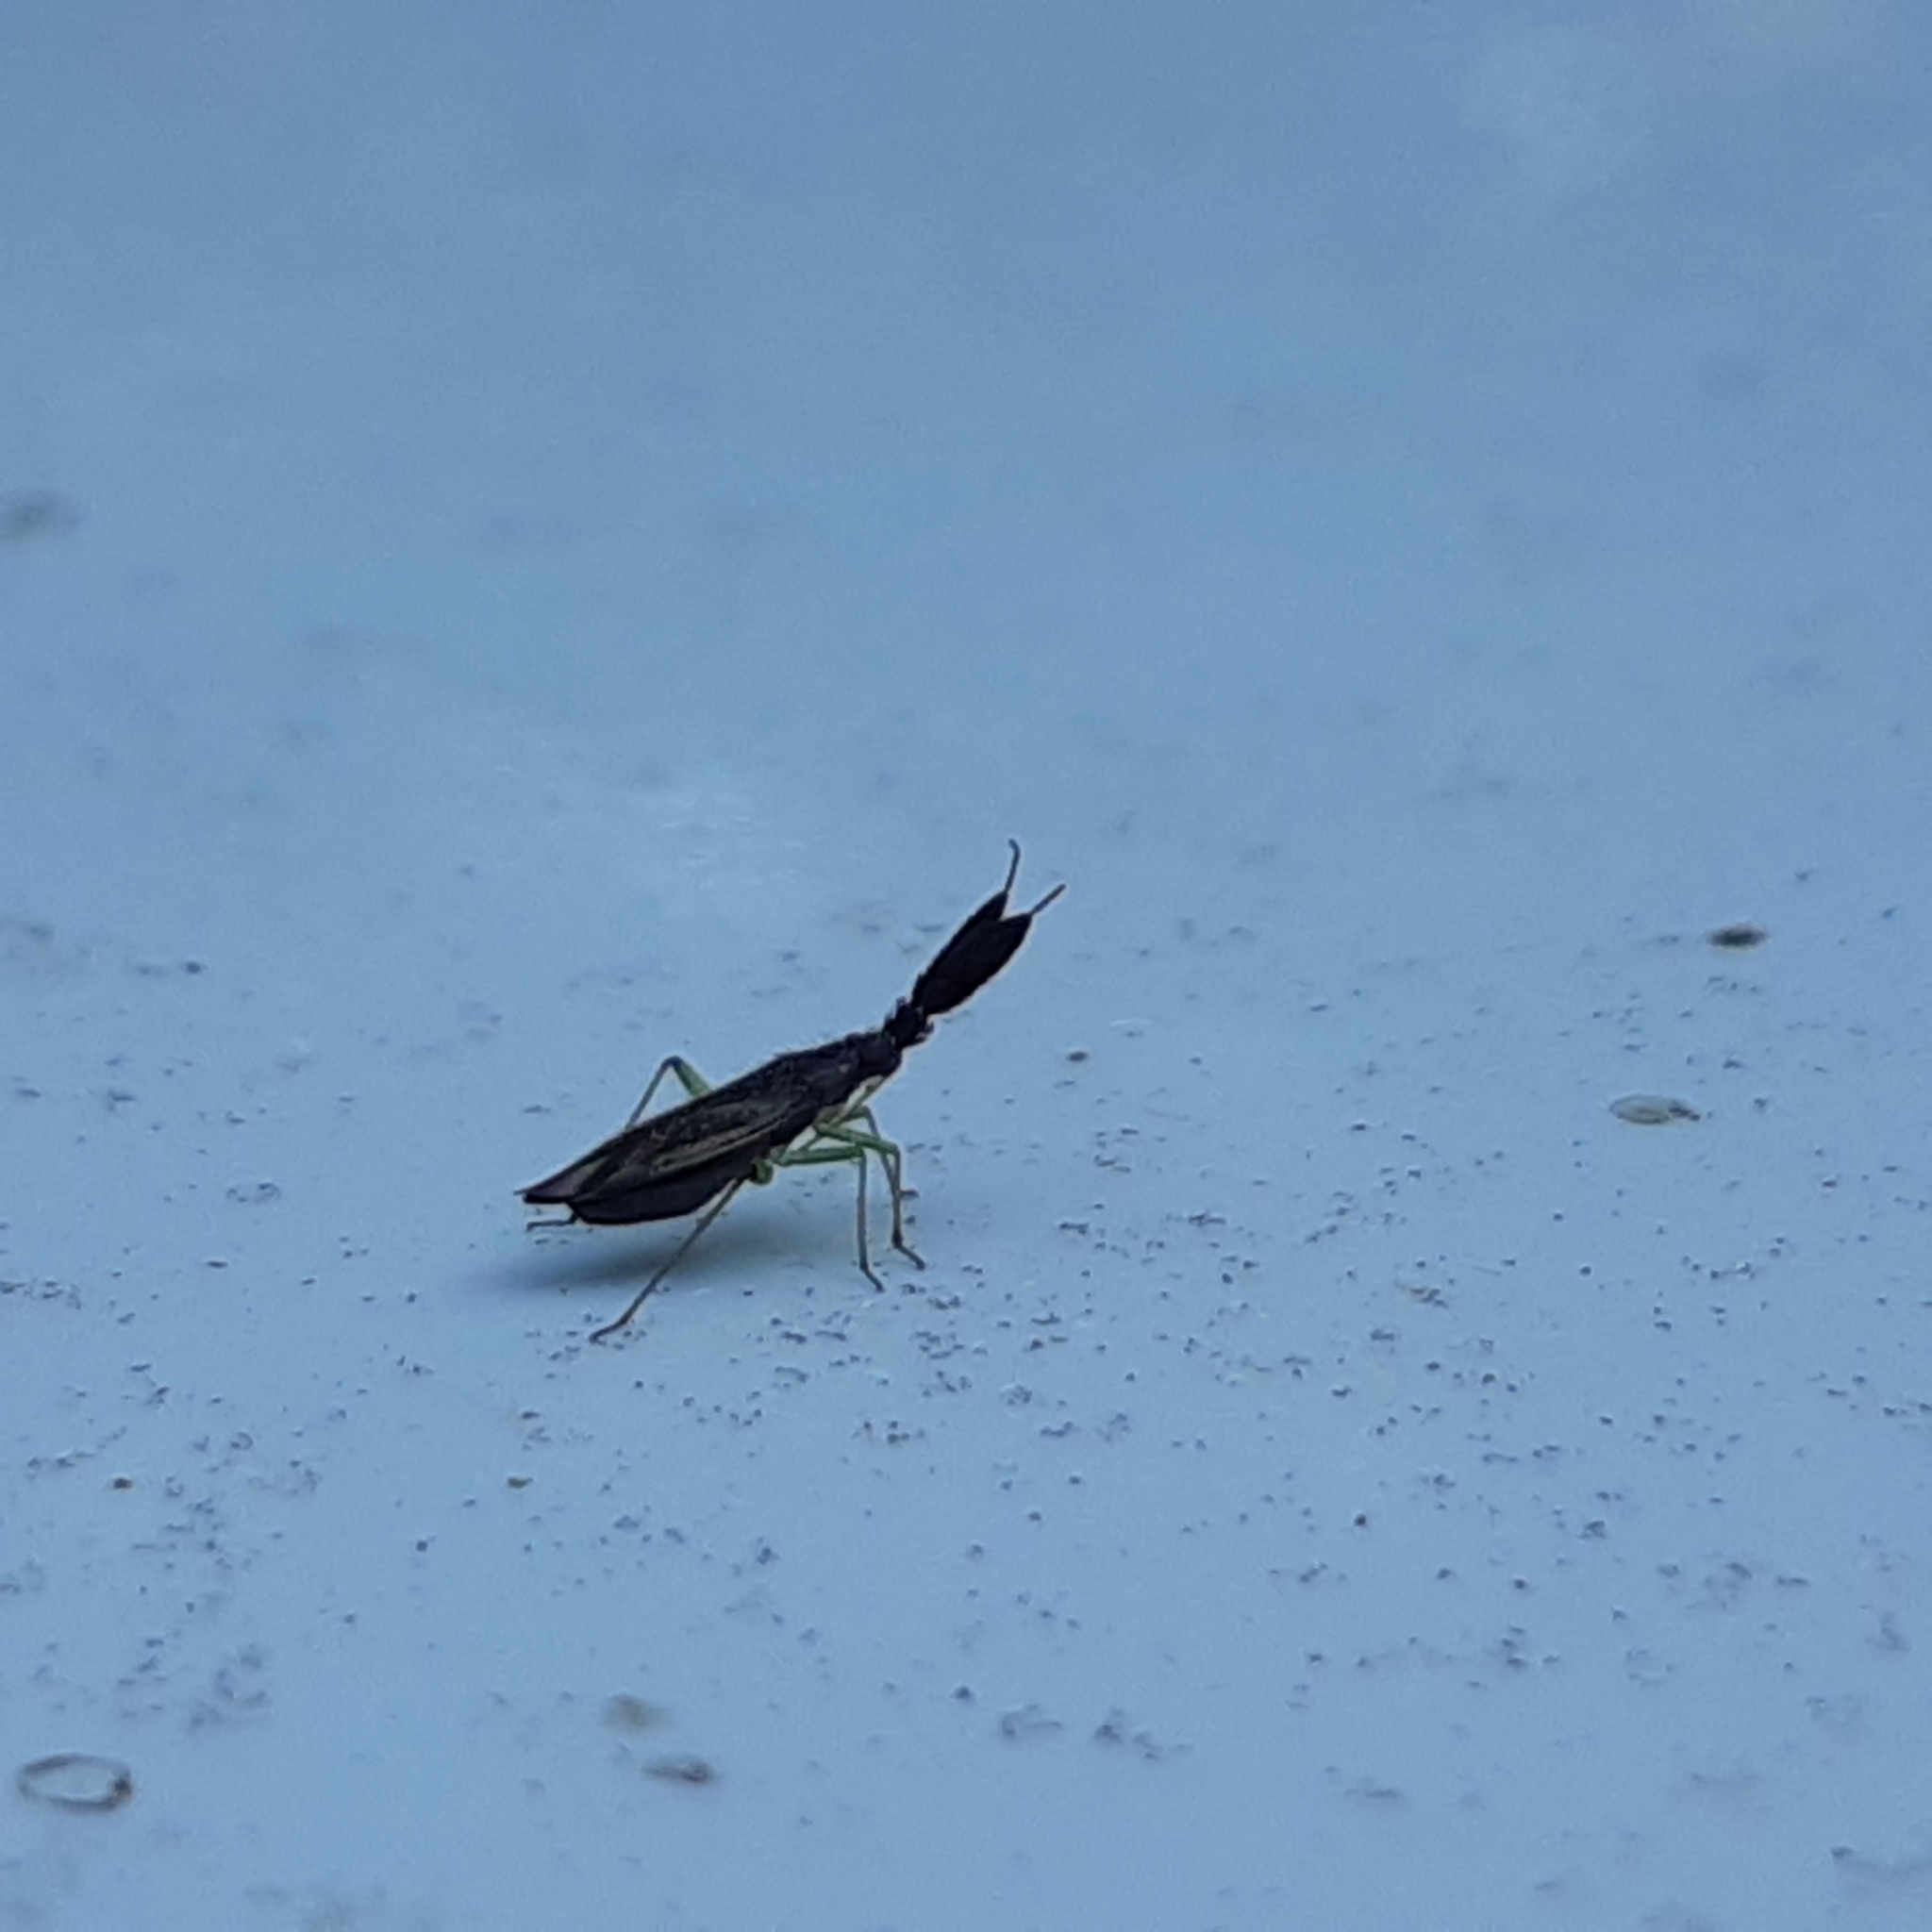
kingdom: Animalia
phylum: Arthropoda
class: Insecta
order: Hemiptera
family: Miridae
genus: Heterotoma
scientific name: Heterotoma planicornis
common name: Plant bug
